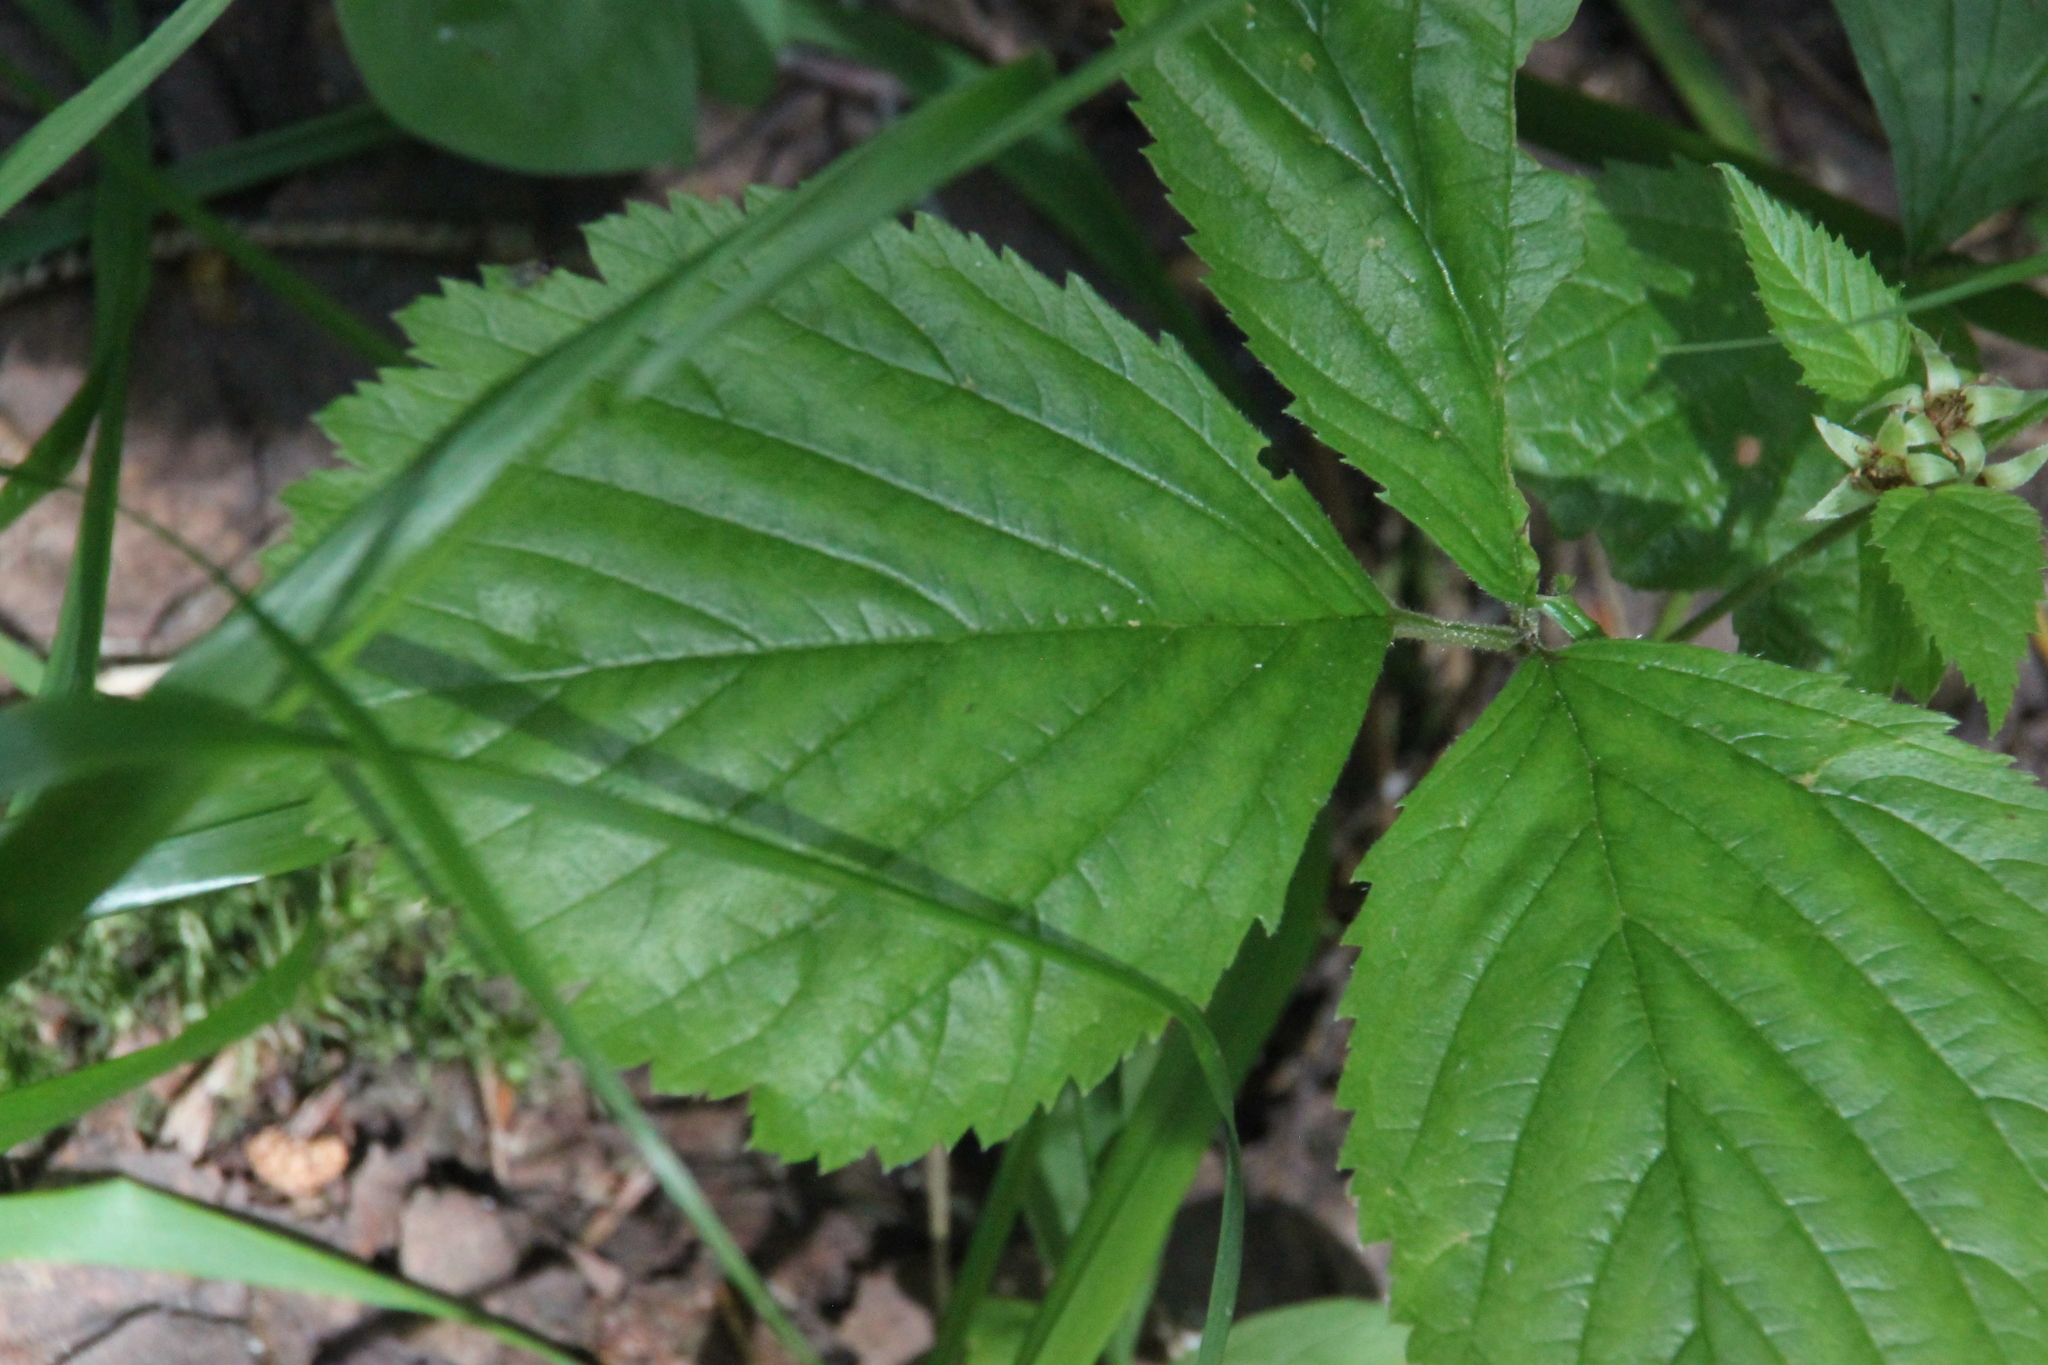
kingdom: Plantae
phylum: Tracheophyta
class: Magnoliopsida
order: Rosales
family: Rosaceae
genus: Rubus
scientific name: Rubus saxatilis
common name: Stone bramble
